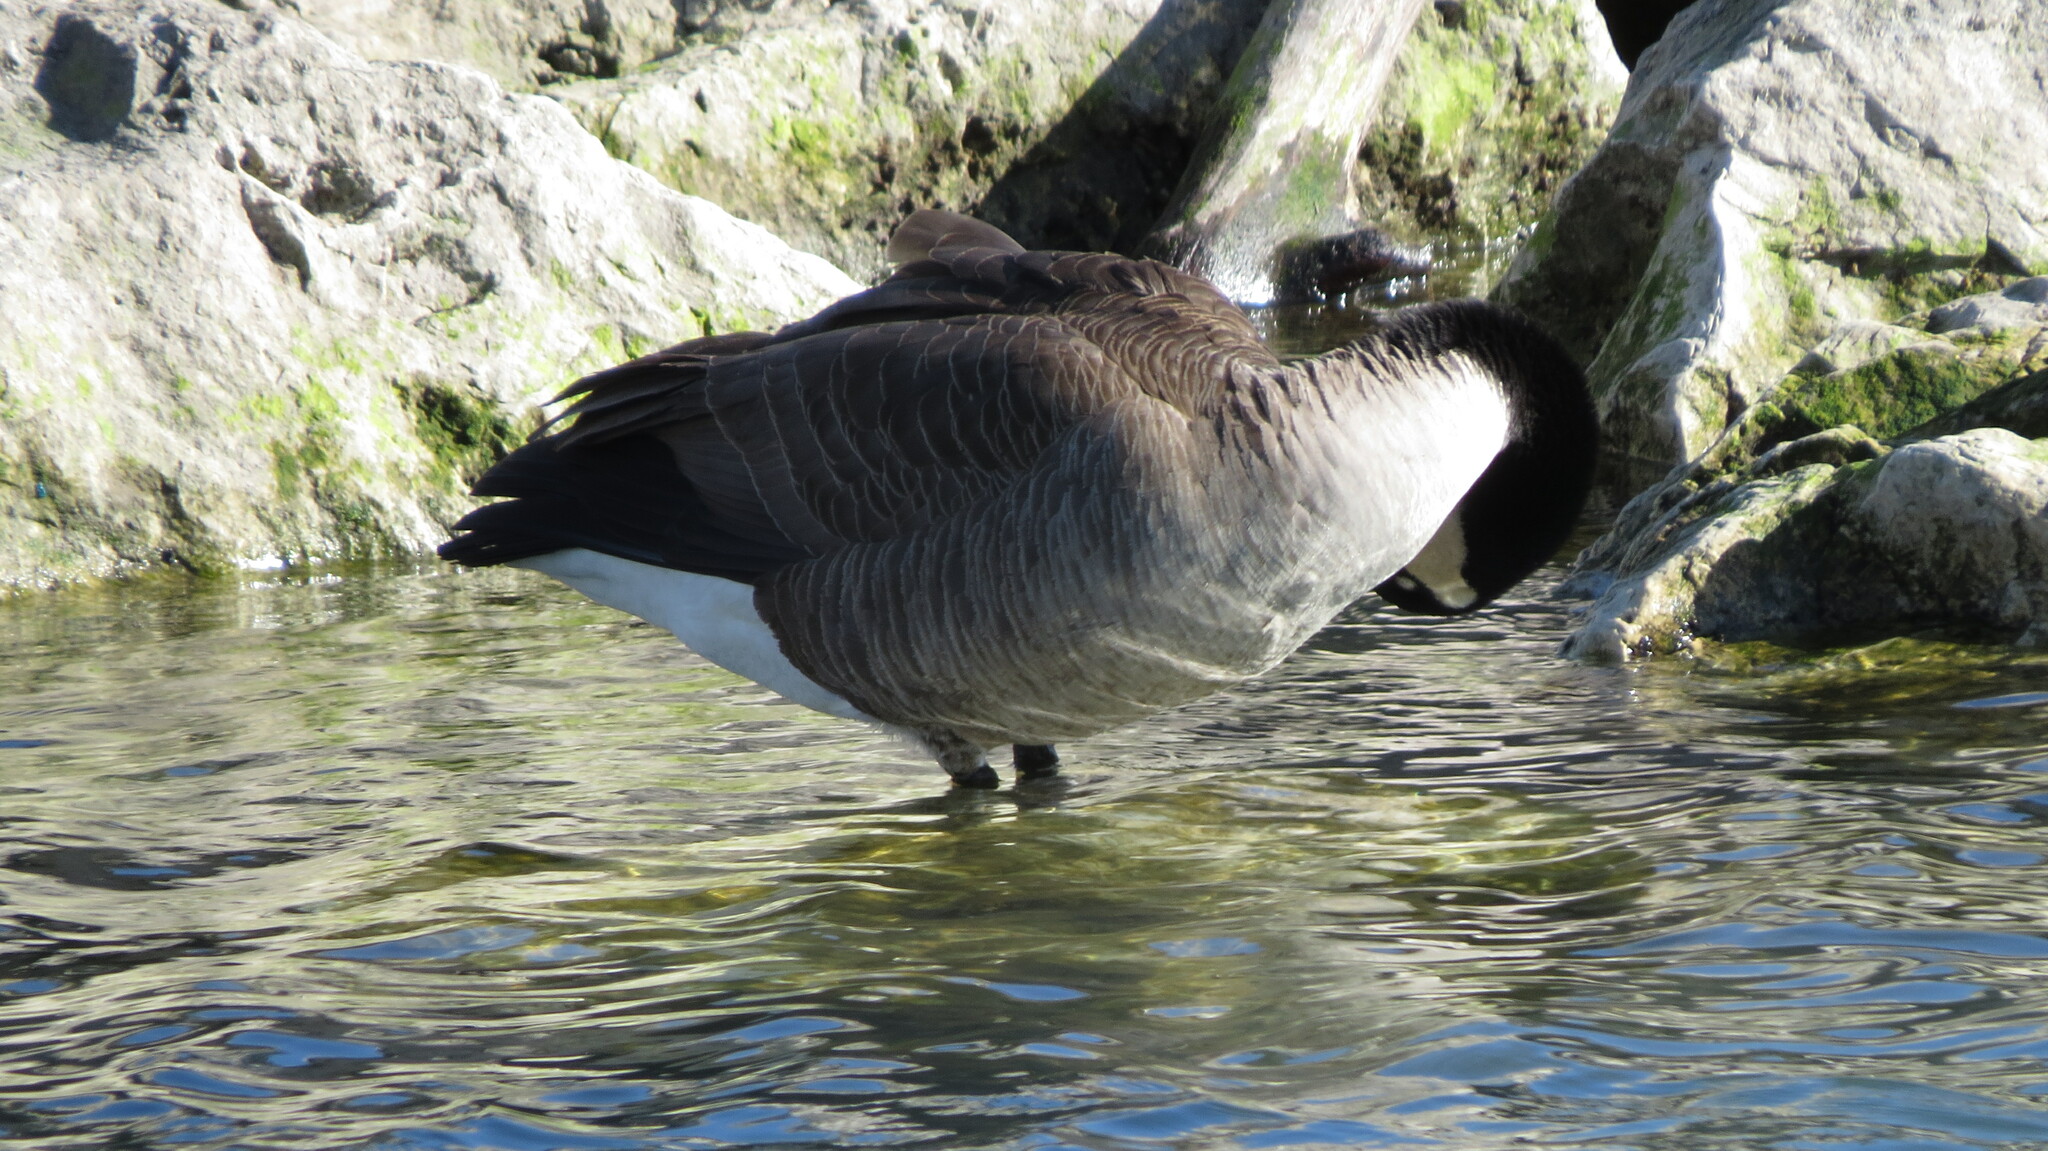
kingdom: Animalia
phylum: Chordata
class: Aves
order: Anseriformes
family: Anatidae
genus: Branta
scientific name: Branta canadensis
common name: Canada goose
